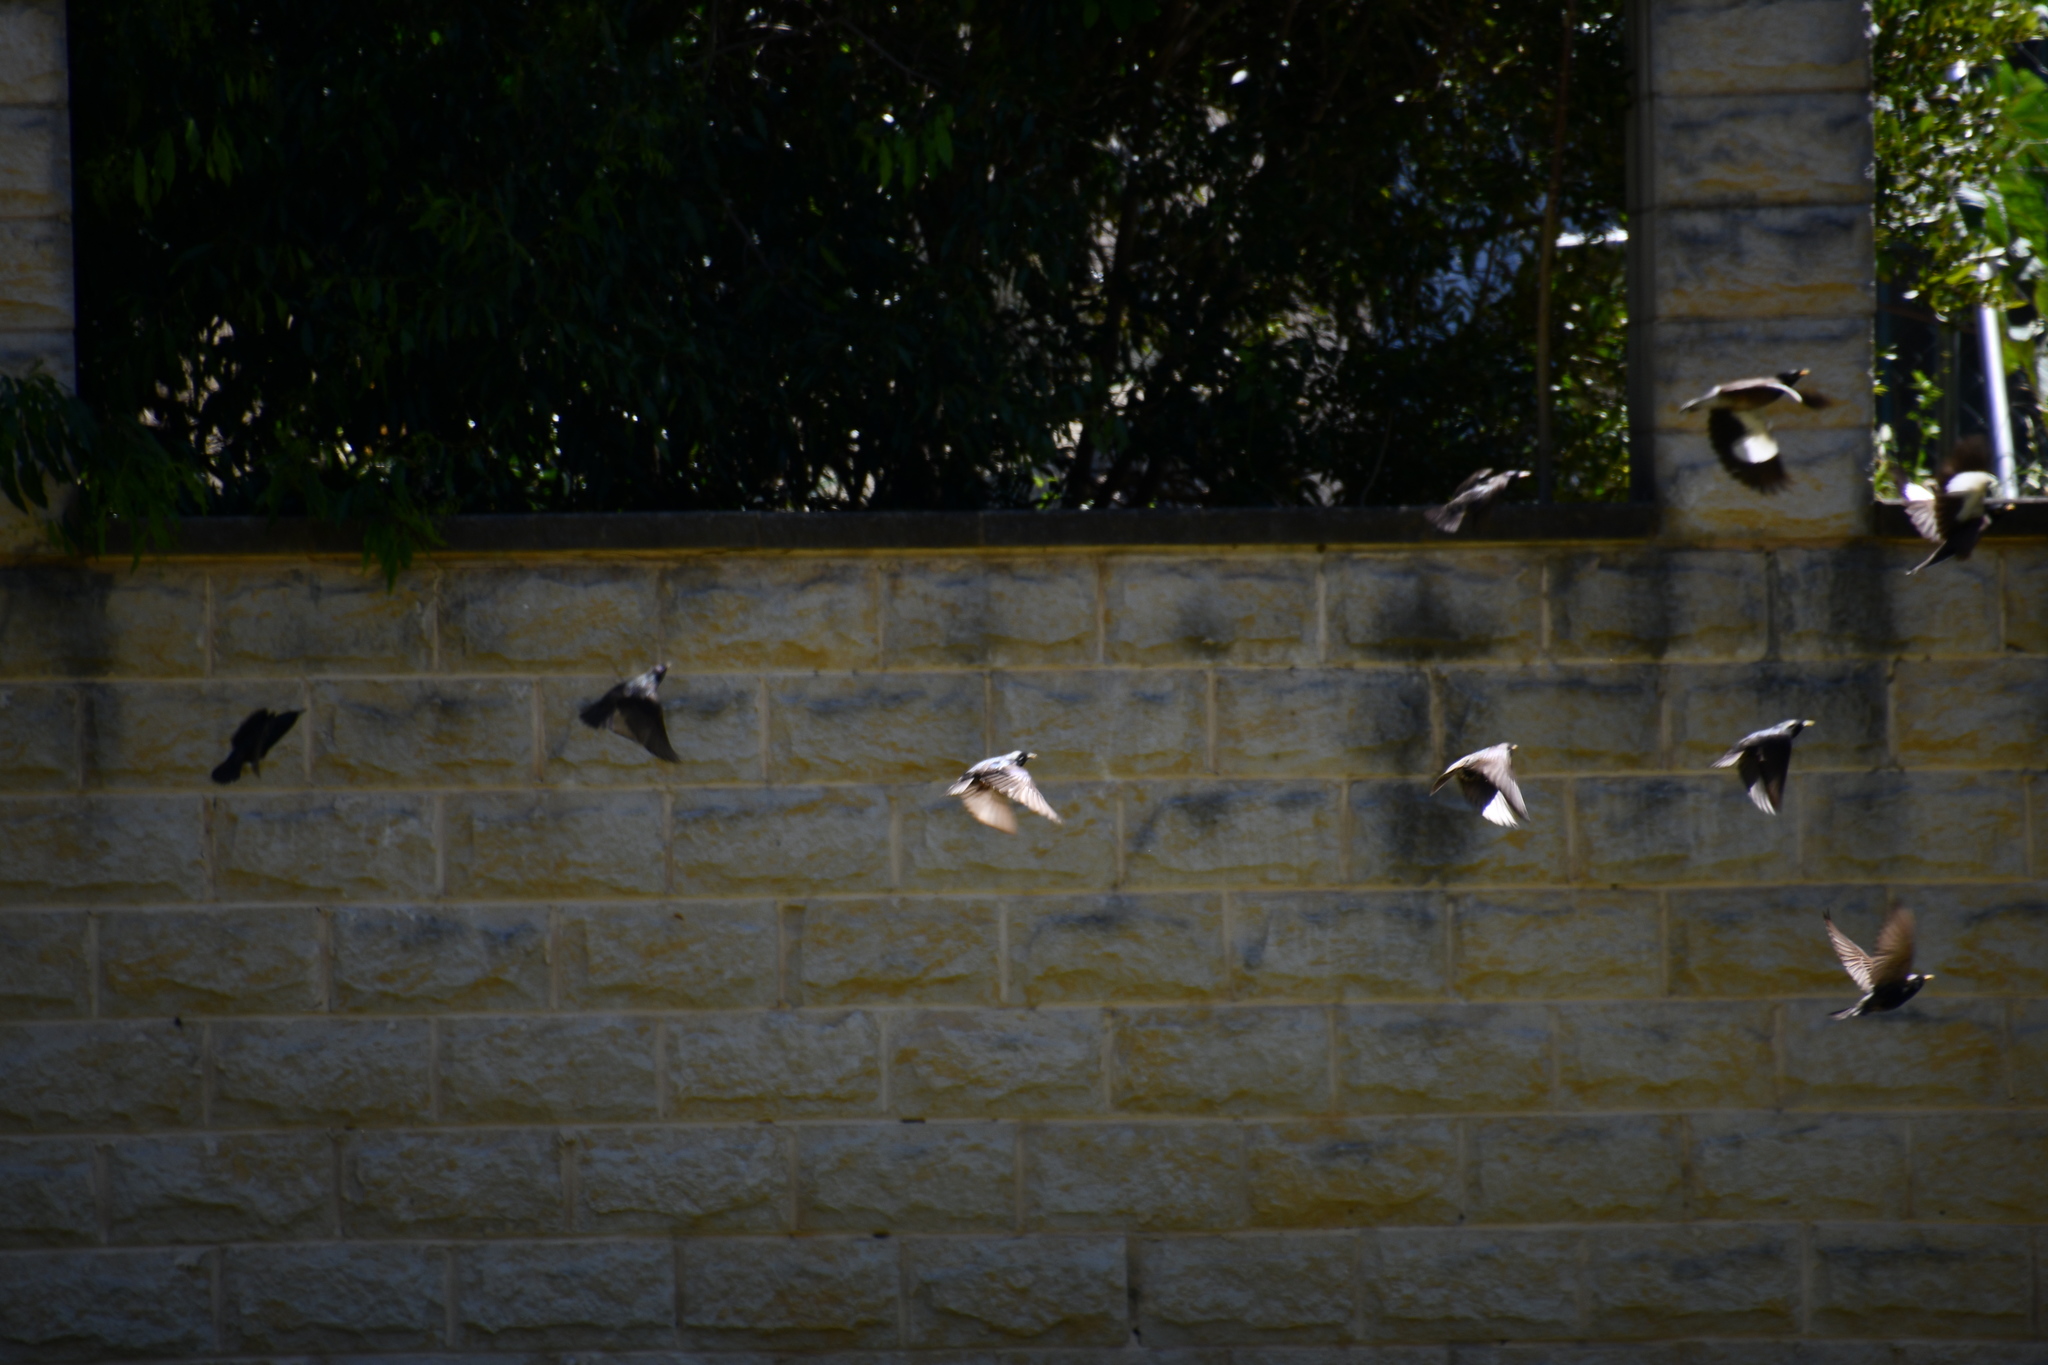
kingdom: Animalia
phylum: Chordata
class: Aves
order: Passeriformes
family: Sturnidae
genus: Sturnus
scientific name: Sturnus vulgaris
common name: Common starling
